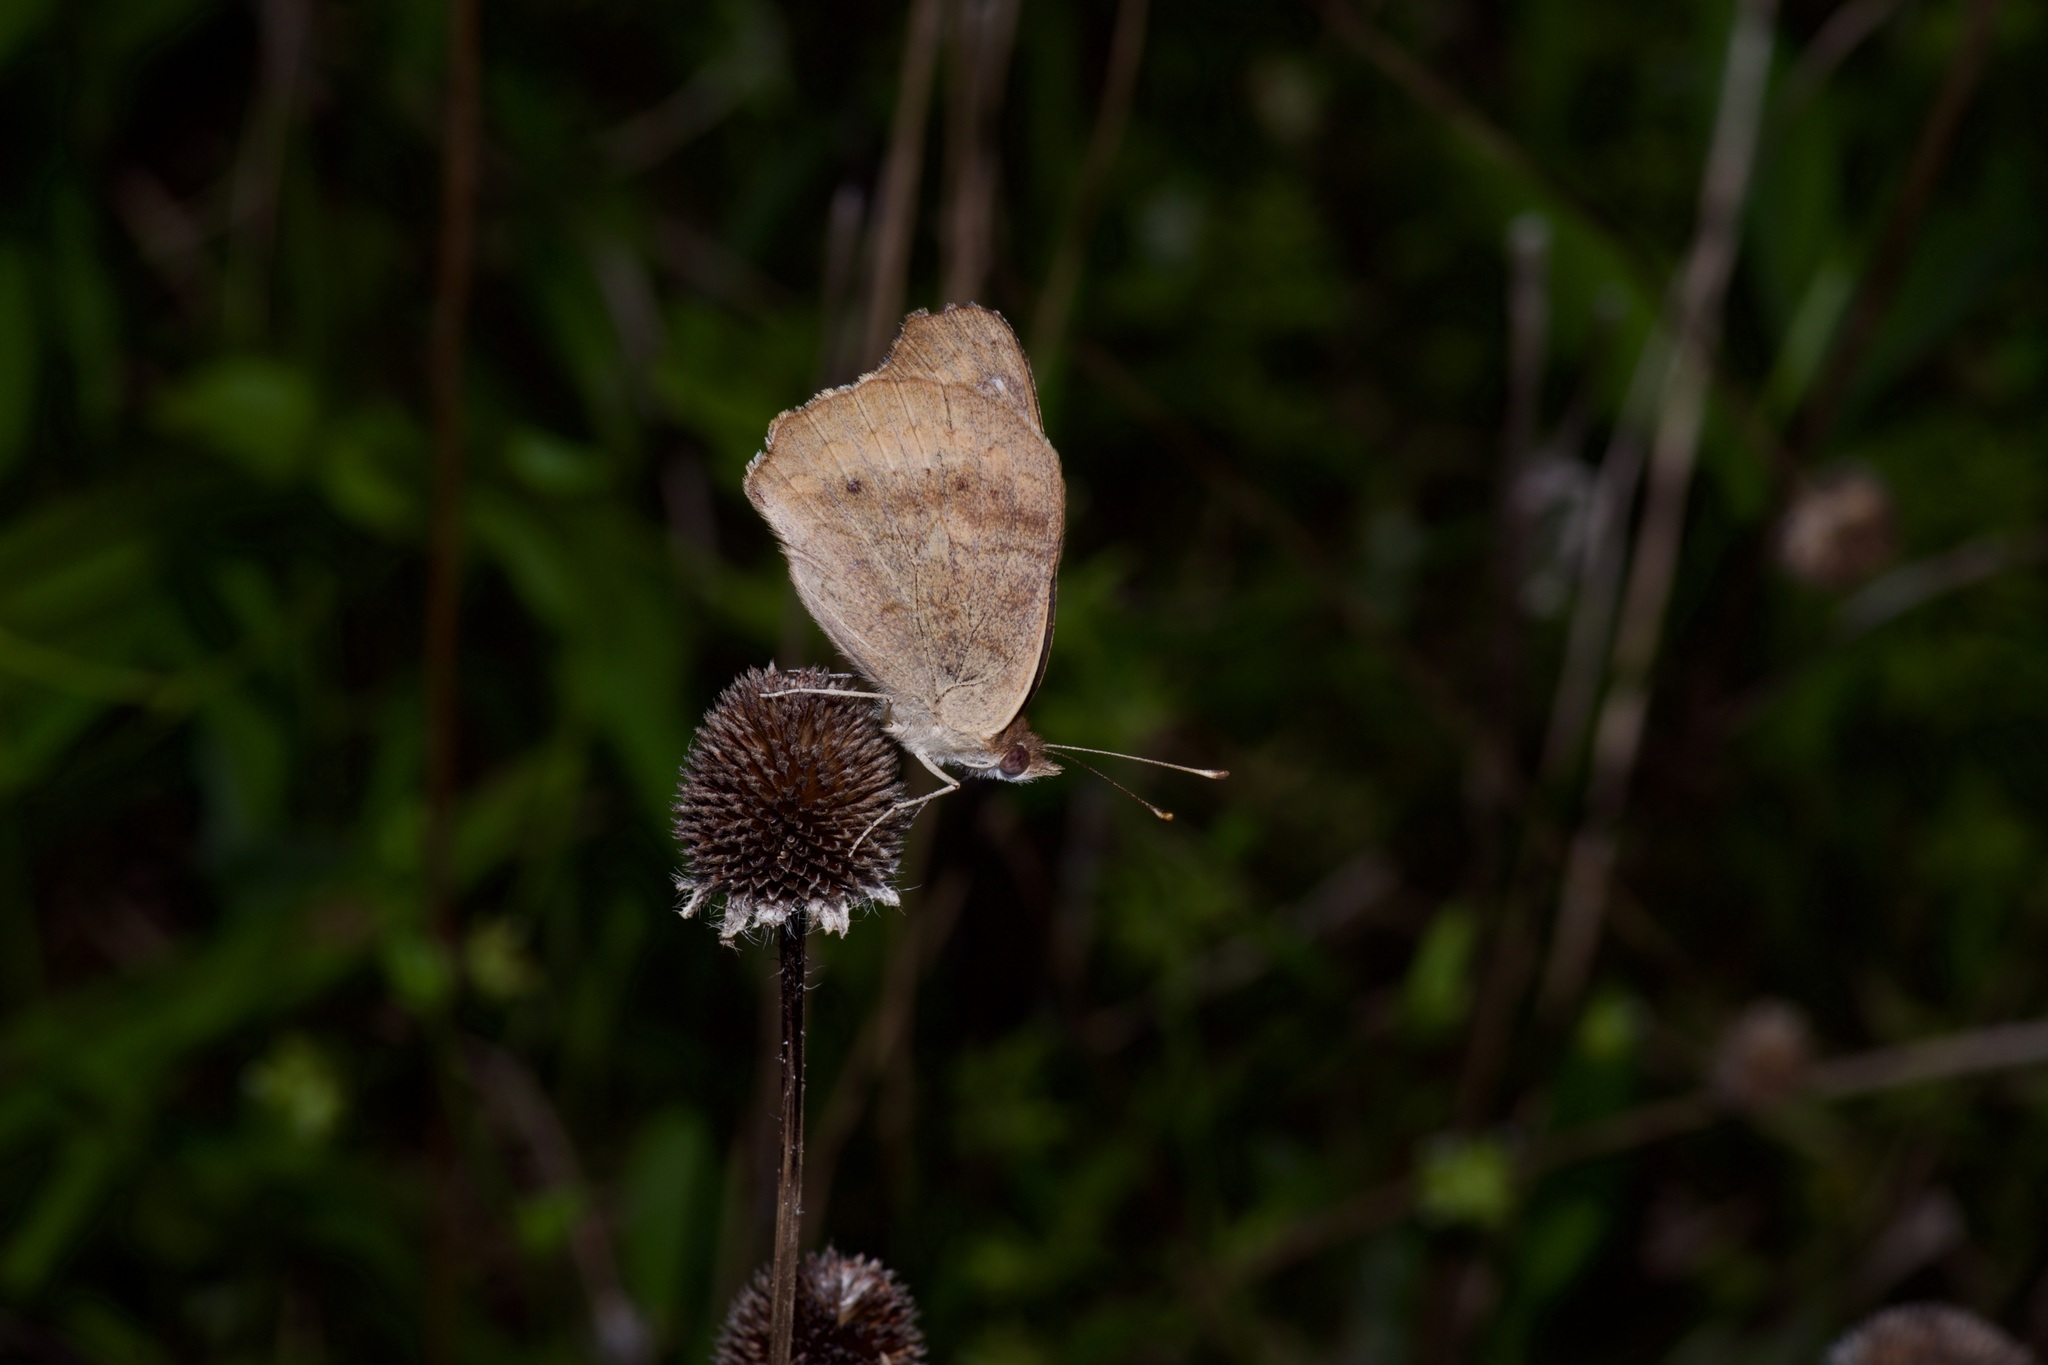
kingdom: Animalia
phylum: Arthropoda
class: Insecta
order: Lepidoptera
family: Nymphalidae
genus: Junonia
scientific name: Junonia coenia
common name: Common buckeye
